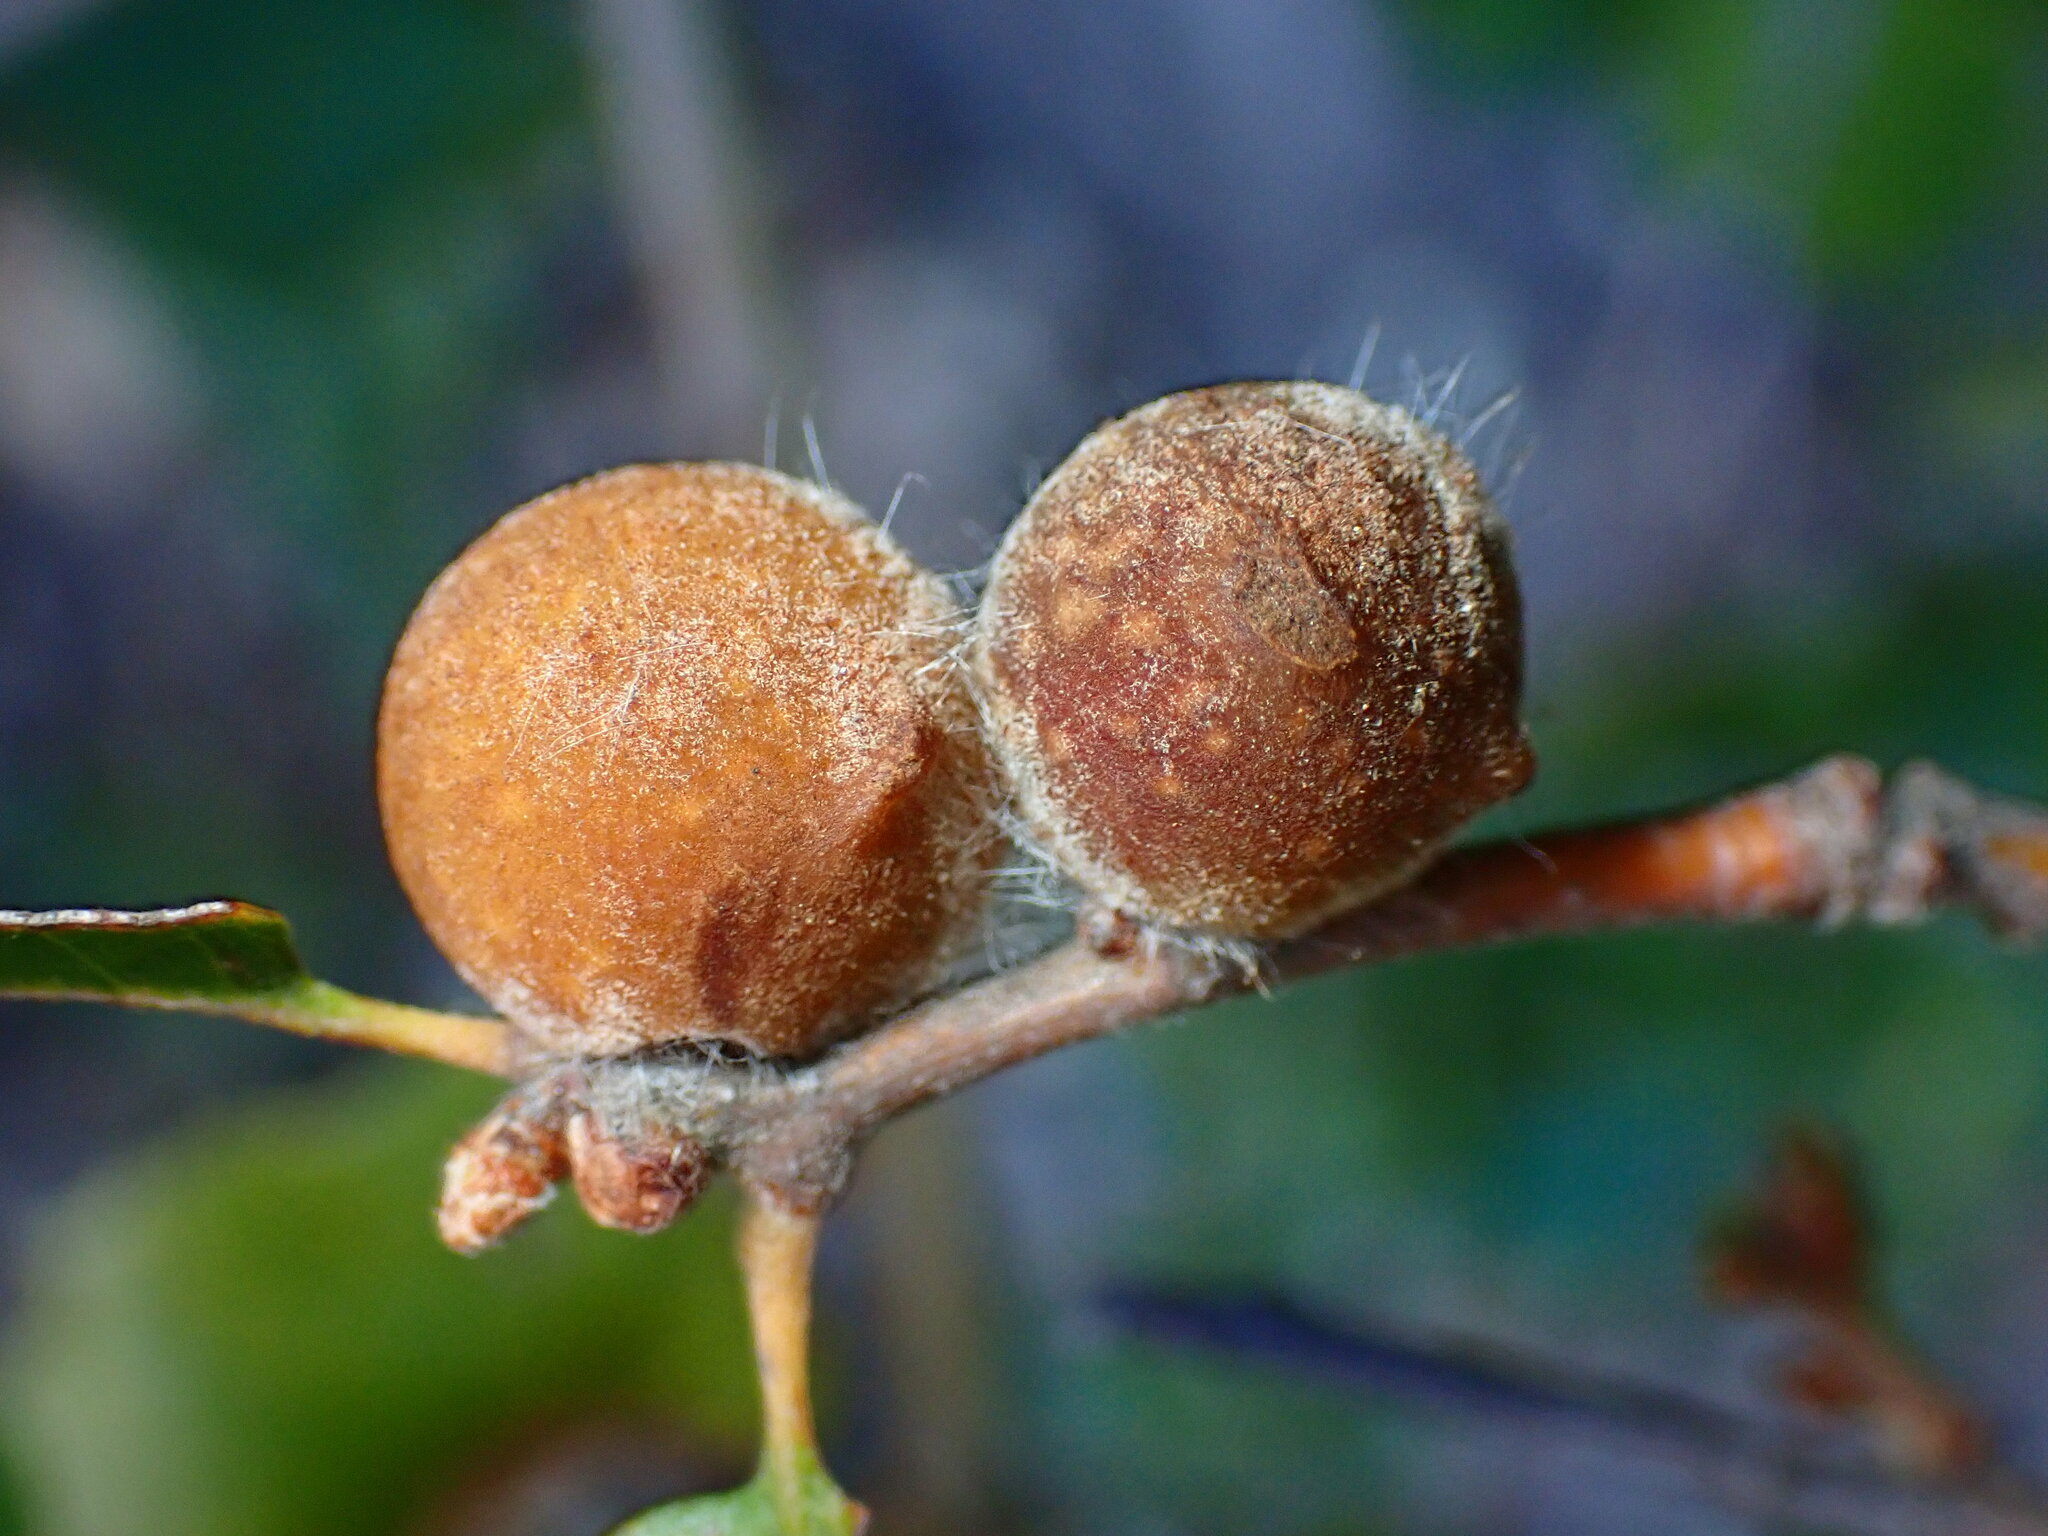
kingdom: Animalia
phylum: Arthropoda
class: Insecta
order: Hymenoptera
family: Cynipidae
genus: Burnettweldia
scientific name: Burnettweldia
